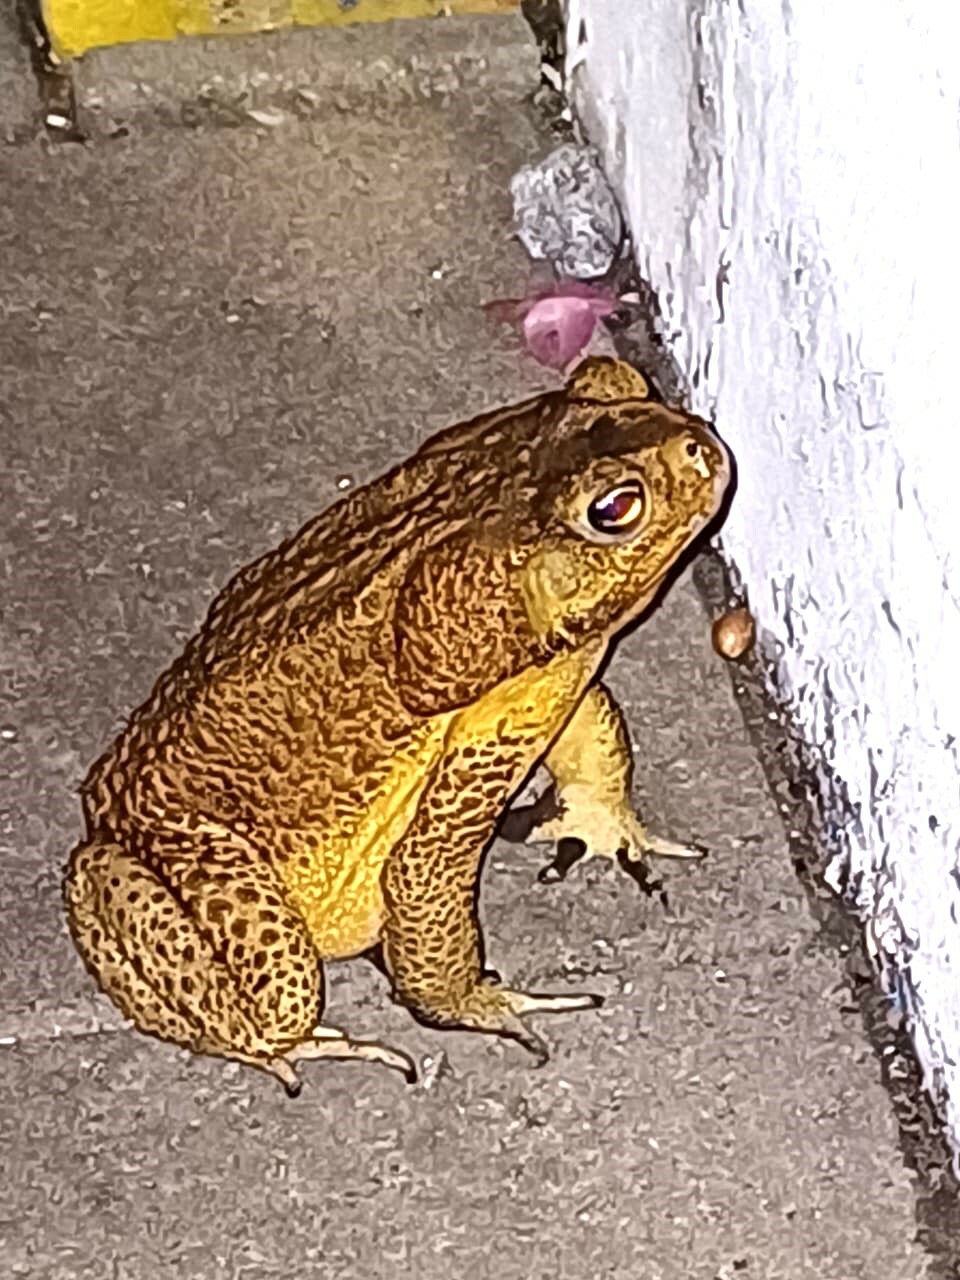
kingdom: Animalia
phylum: Chordata
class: Amphibia
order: Anura
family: Bufonidae
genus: Rhinella
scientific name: Rhinella marina
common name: Cane toad
